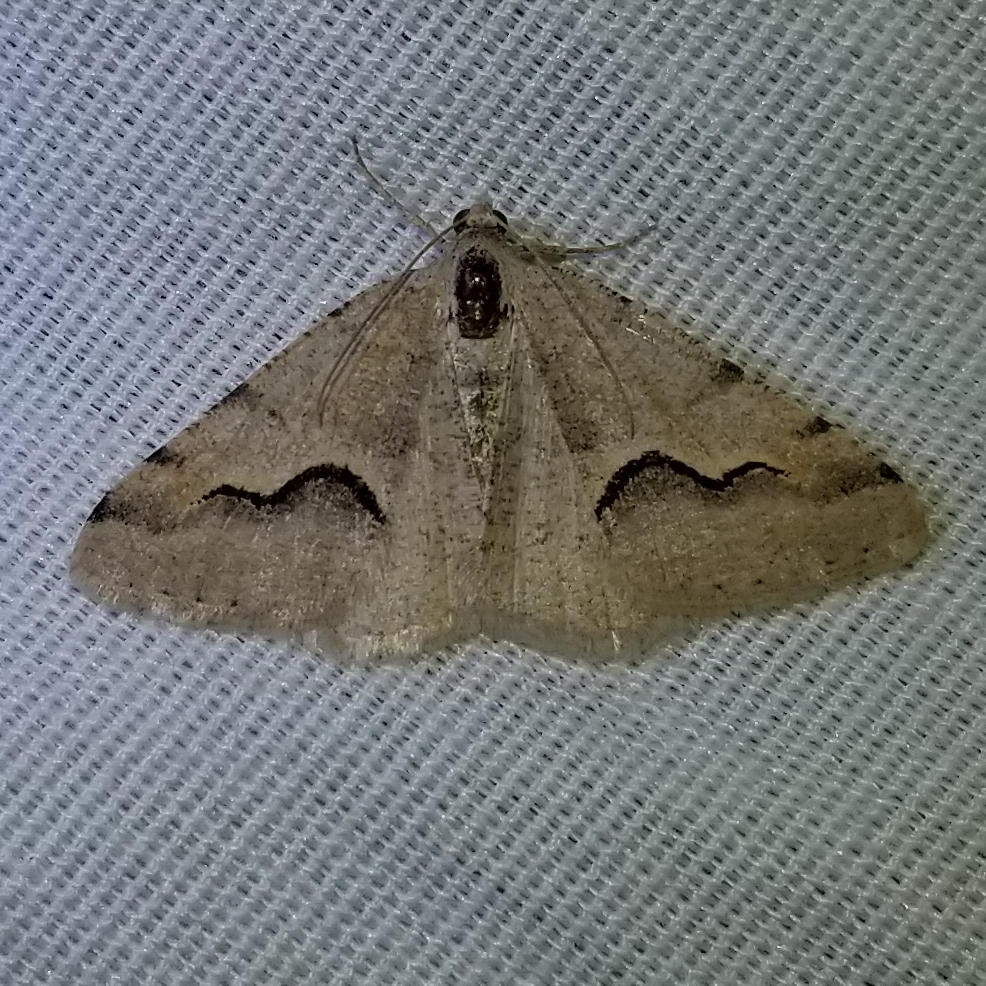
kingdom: Animalia
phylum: Arthropoda
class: Insecta
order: Lepidoptera
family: Geometridae
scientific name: Geometridae
